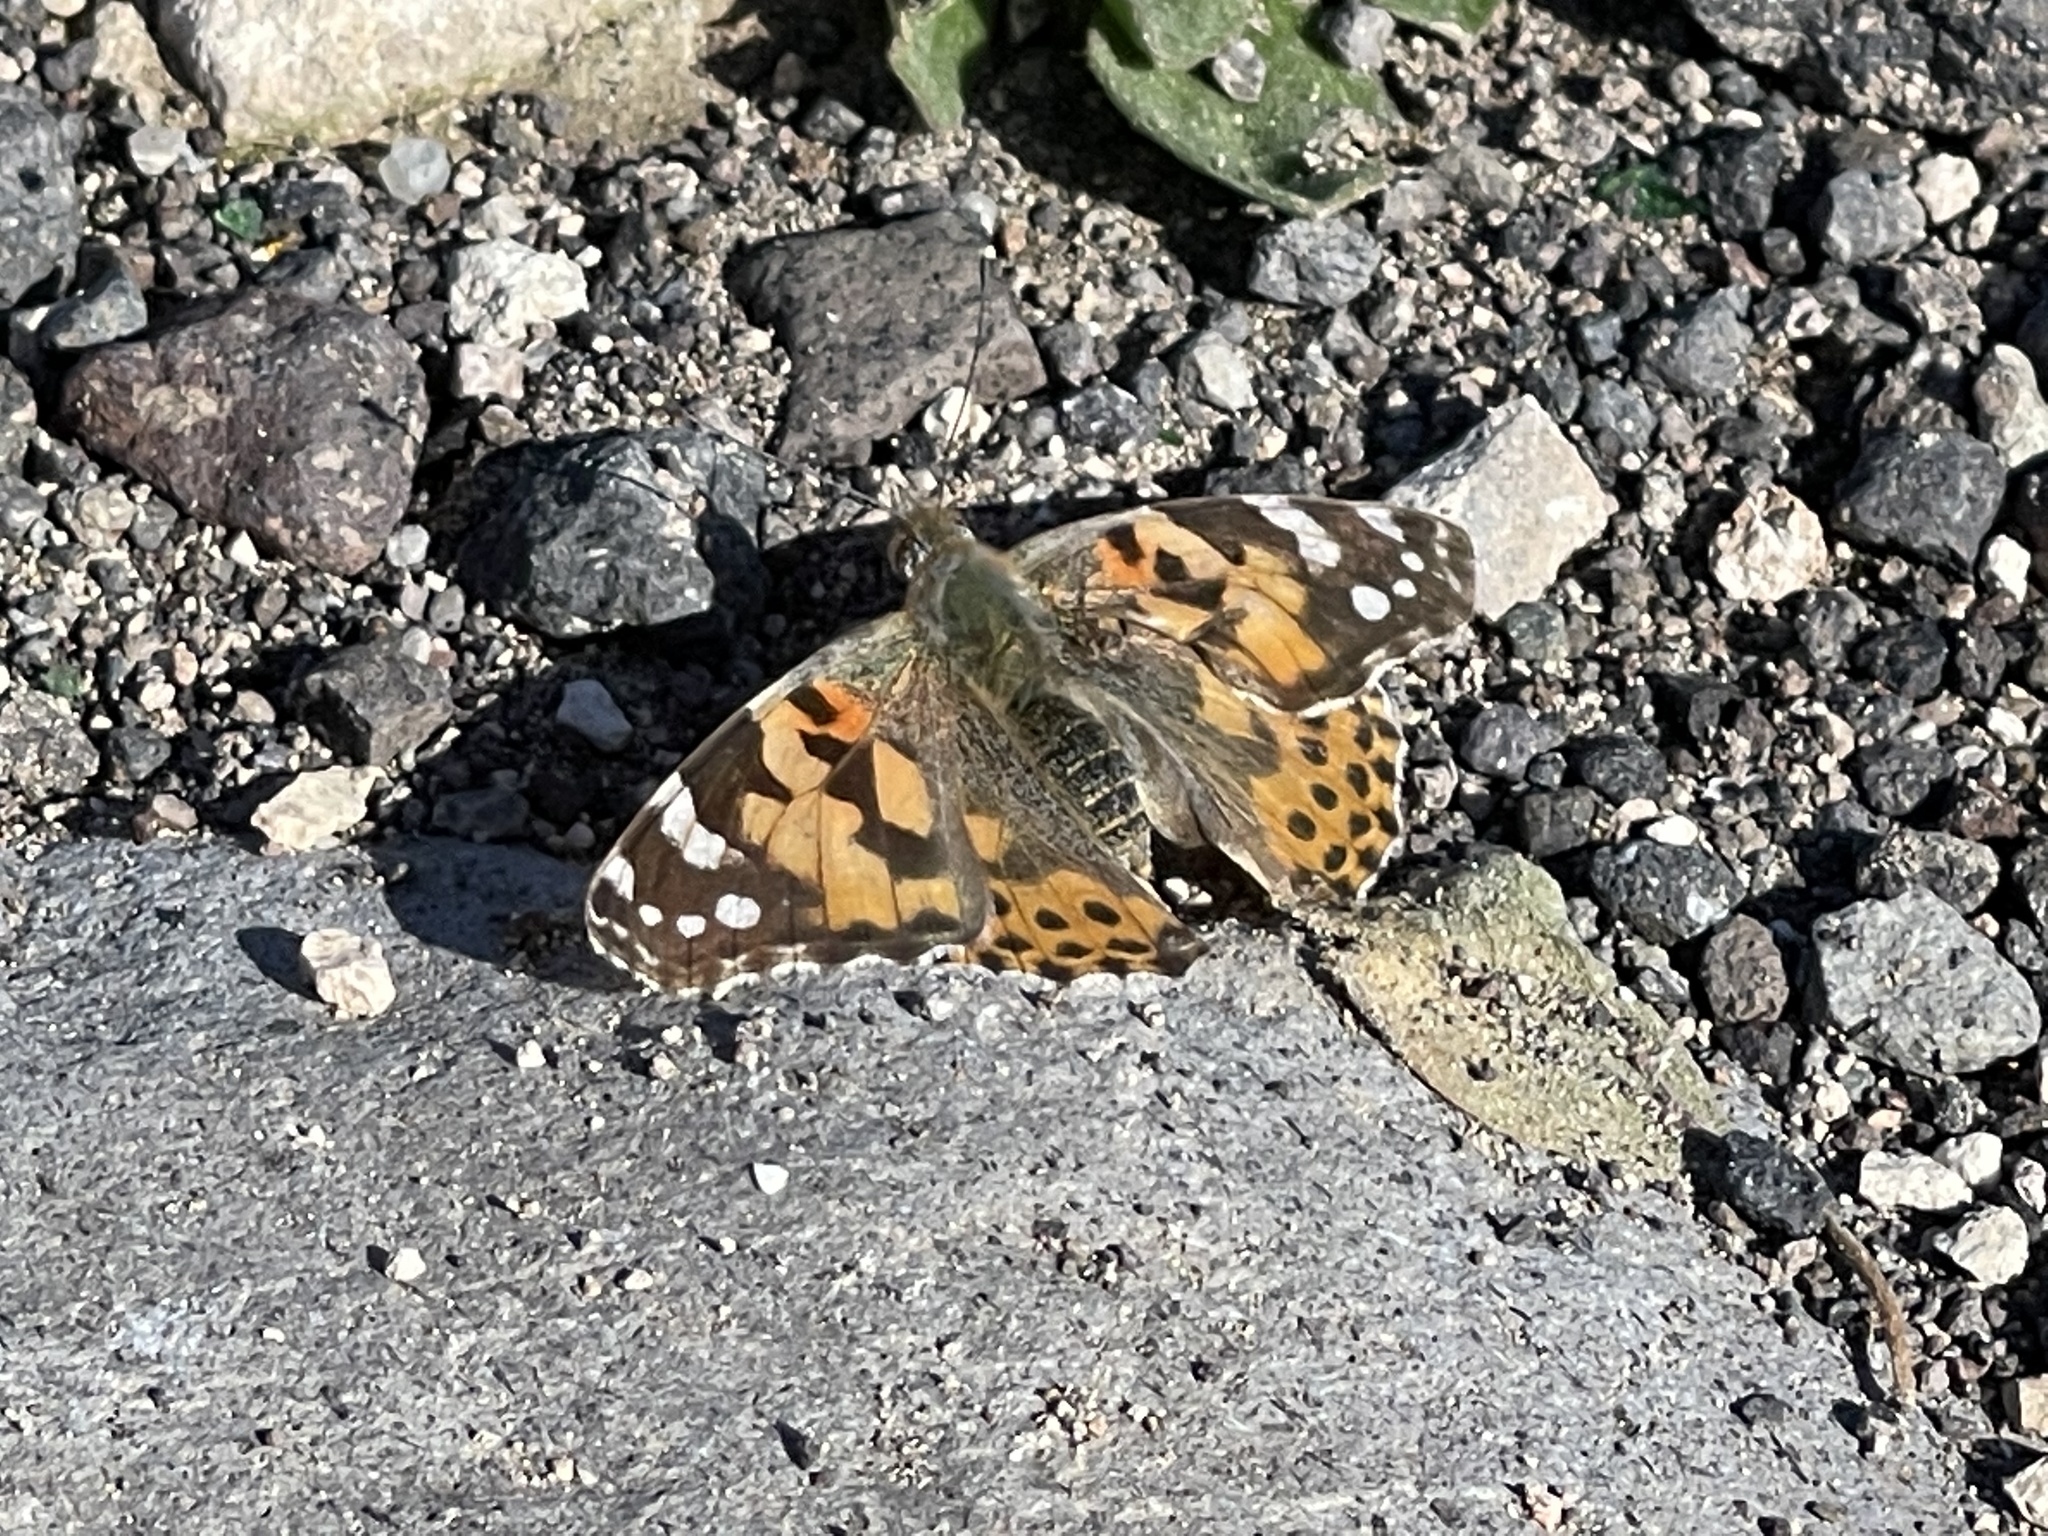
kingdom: Animalia
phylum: Arthropoda
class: Insecta
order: Lepidoptera
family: Nymphalidae
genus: Vanessa
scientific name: Vanessa cardui
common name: Painted lady
